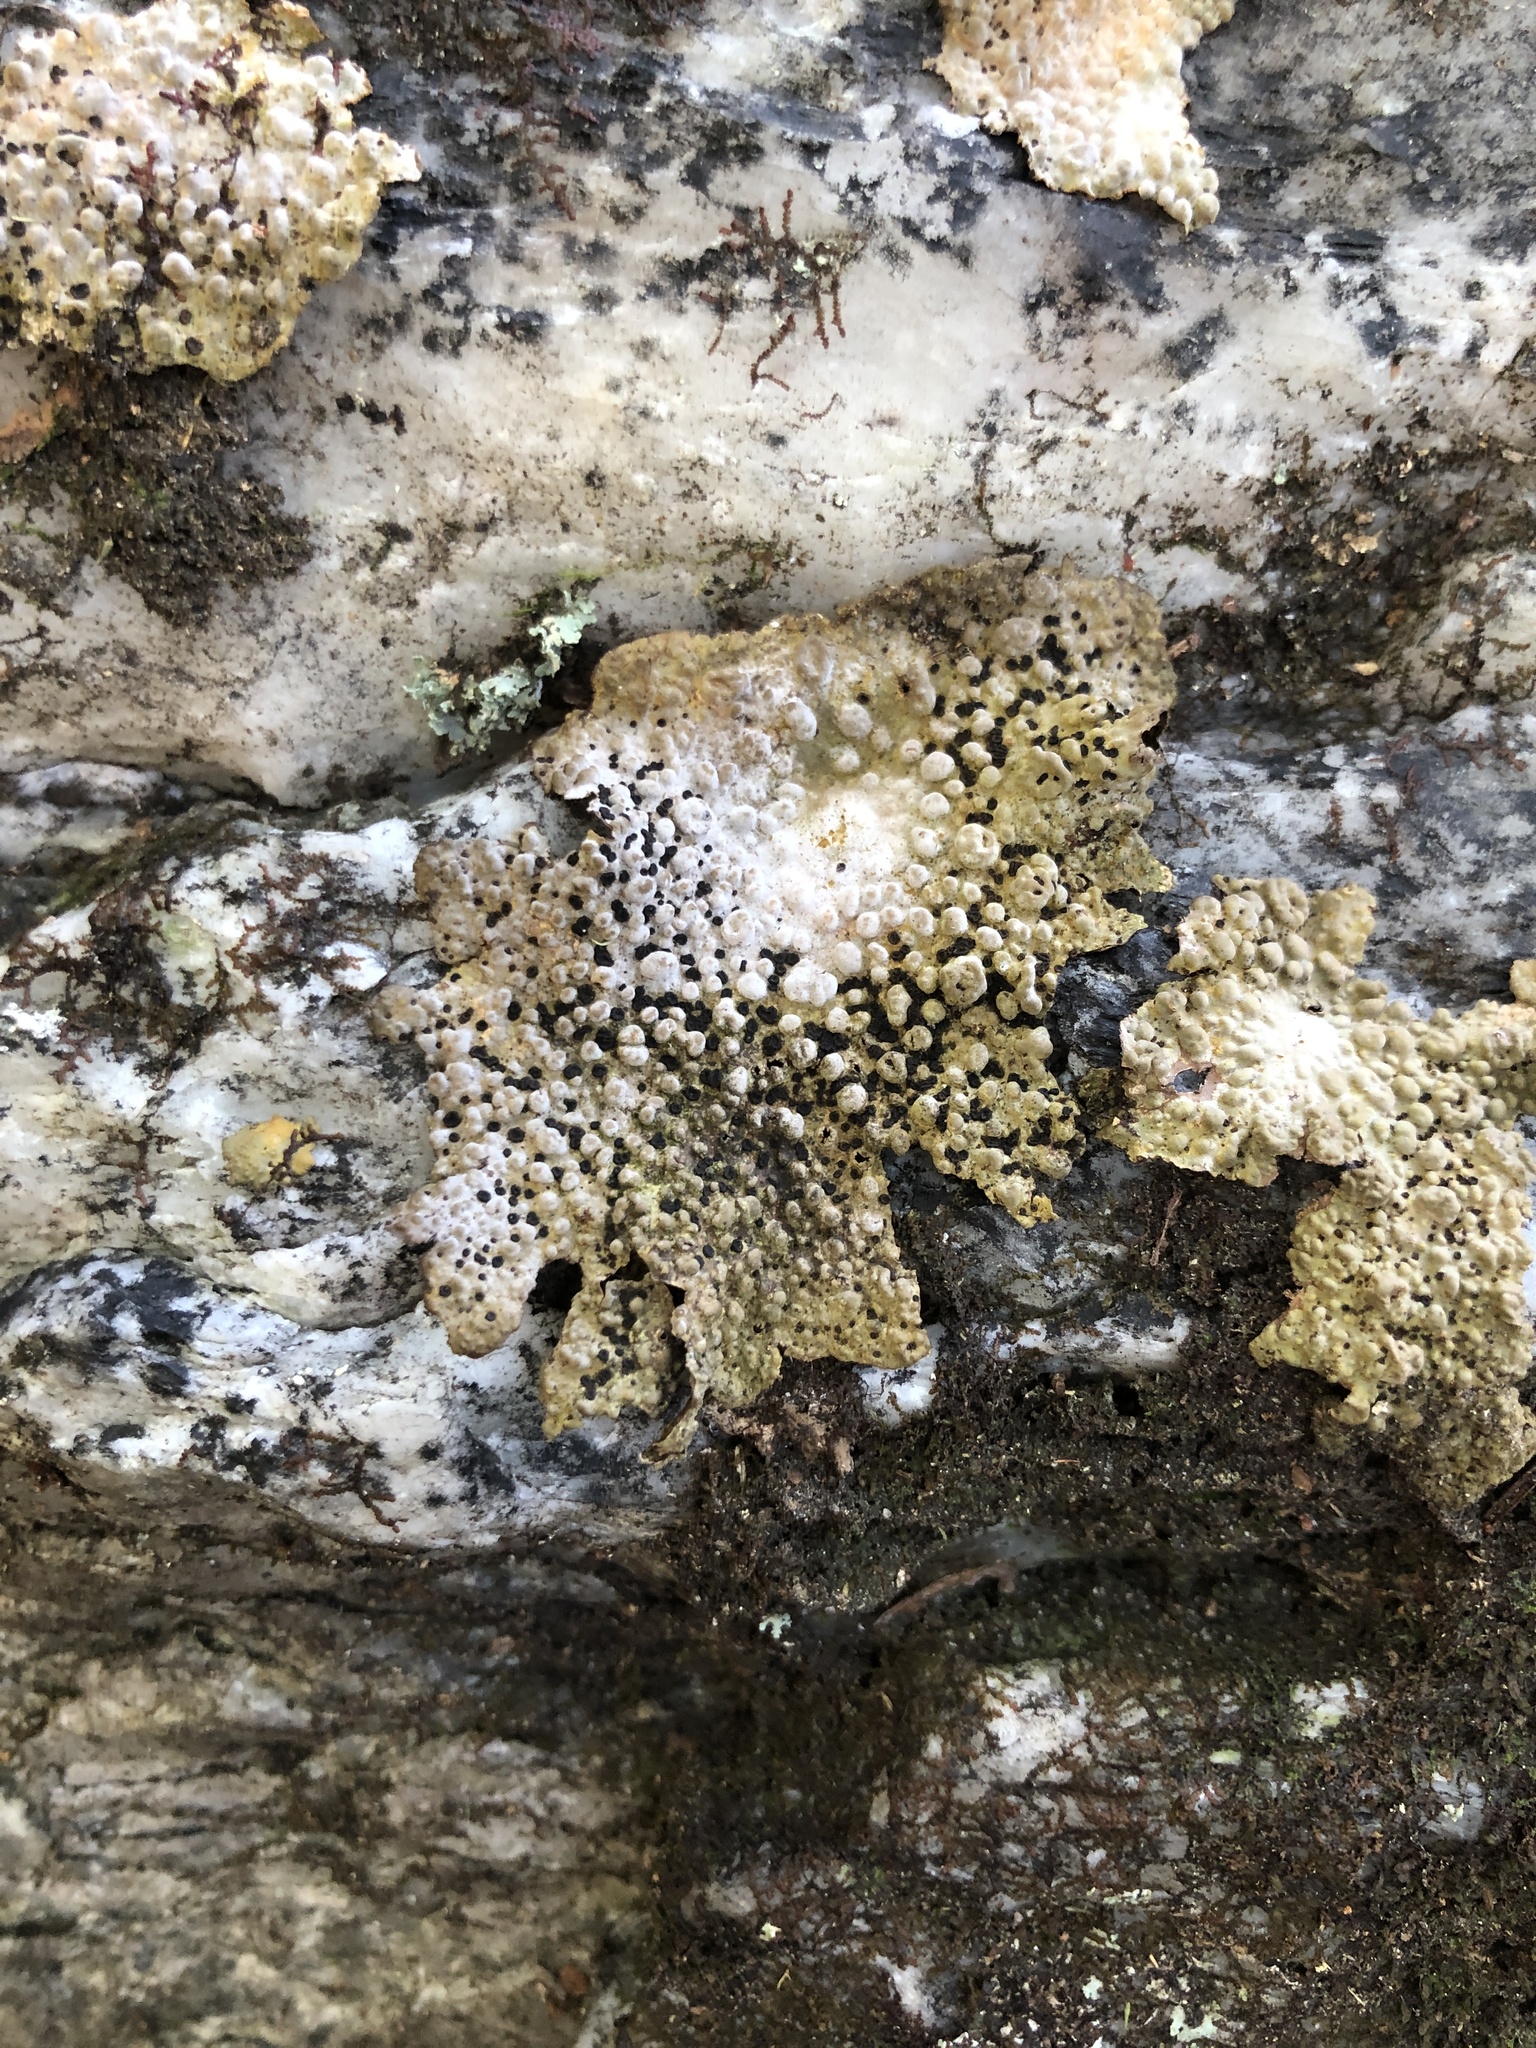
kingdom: Fungi
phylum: Ascomycota
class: Lecanoromycetes
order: Umbilicariales
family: Umbilicariaceae
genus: Lasallia
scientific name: Lasallia papulosa
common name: Common toadskin lichen
